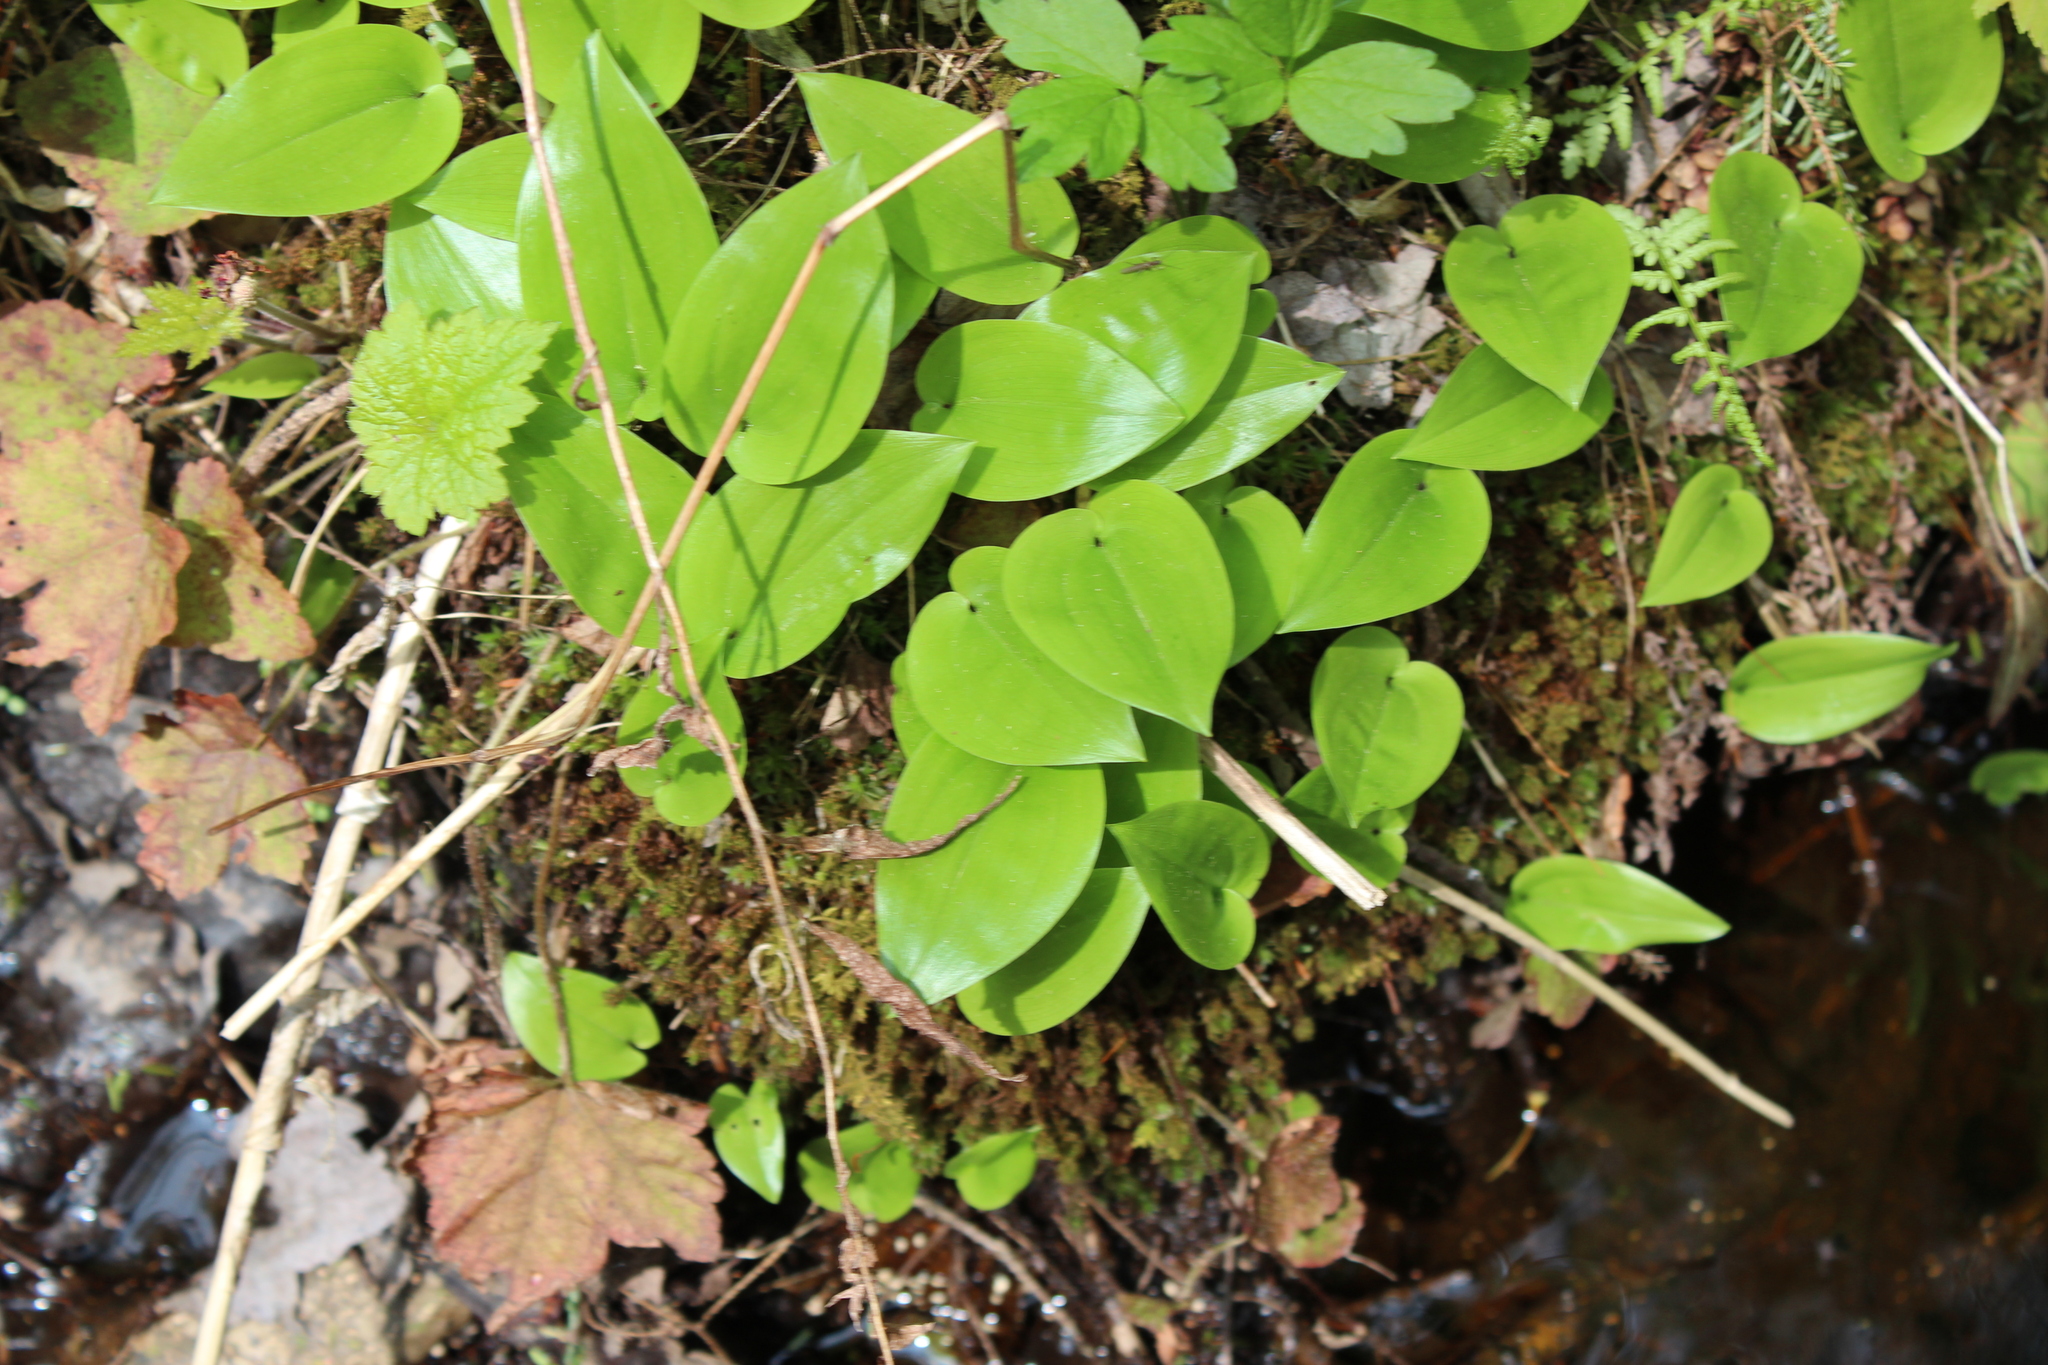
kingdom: Plantae
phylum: Tracheophyta
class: Liliopsida
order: Asparagales
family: Asparagaceae
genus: Maianthemum
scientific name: Maianthemum canadense
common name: False lily-of-the-valley
